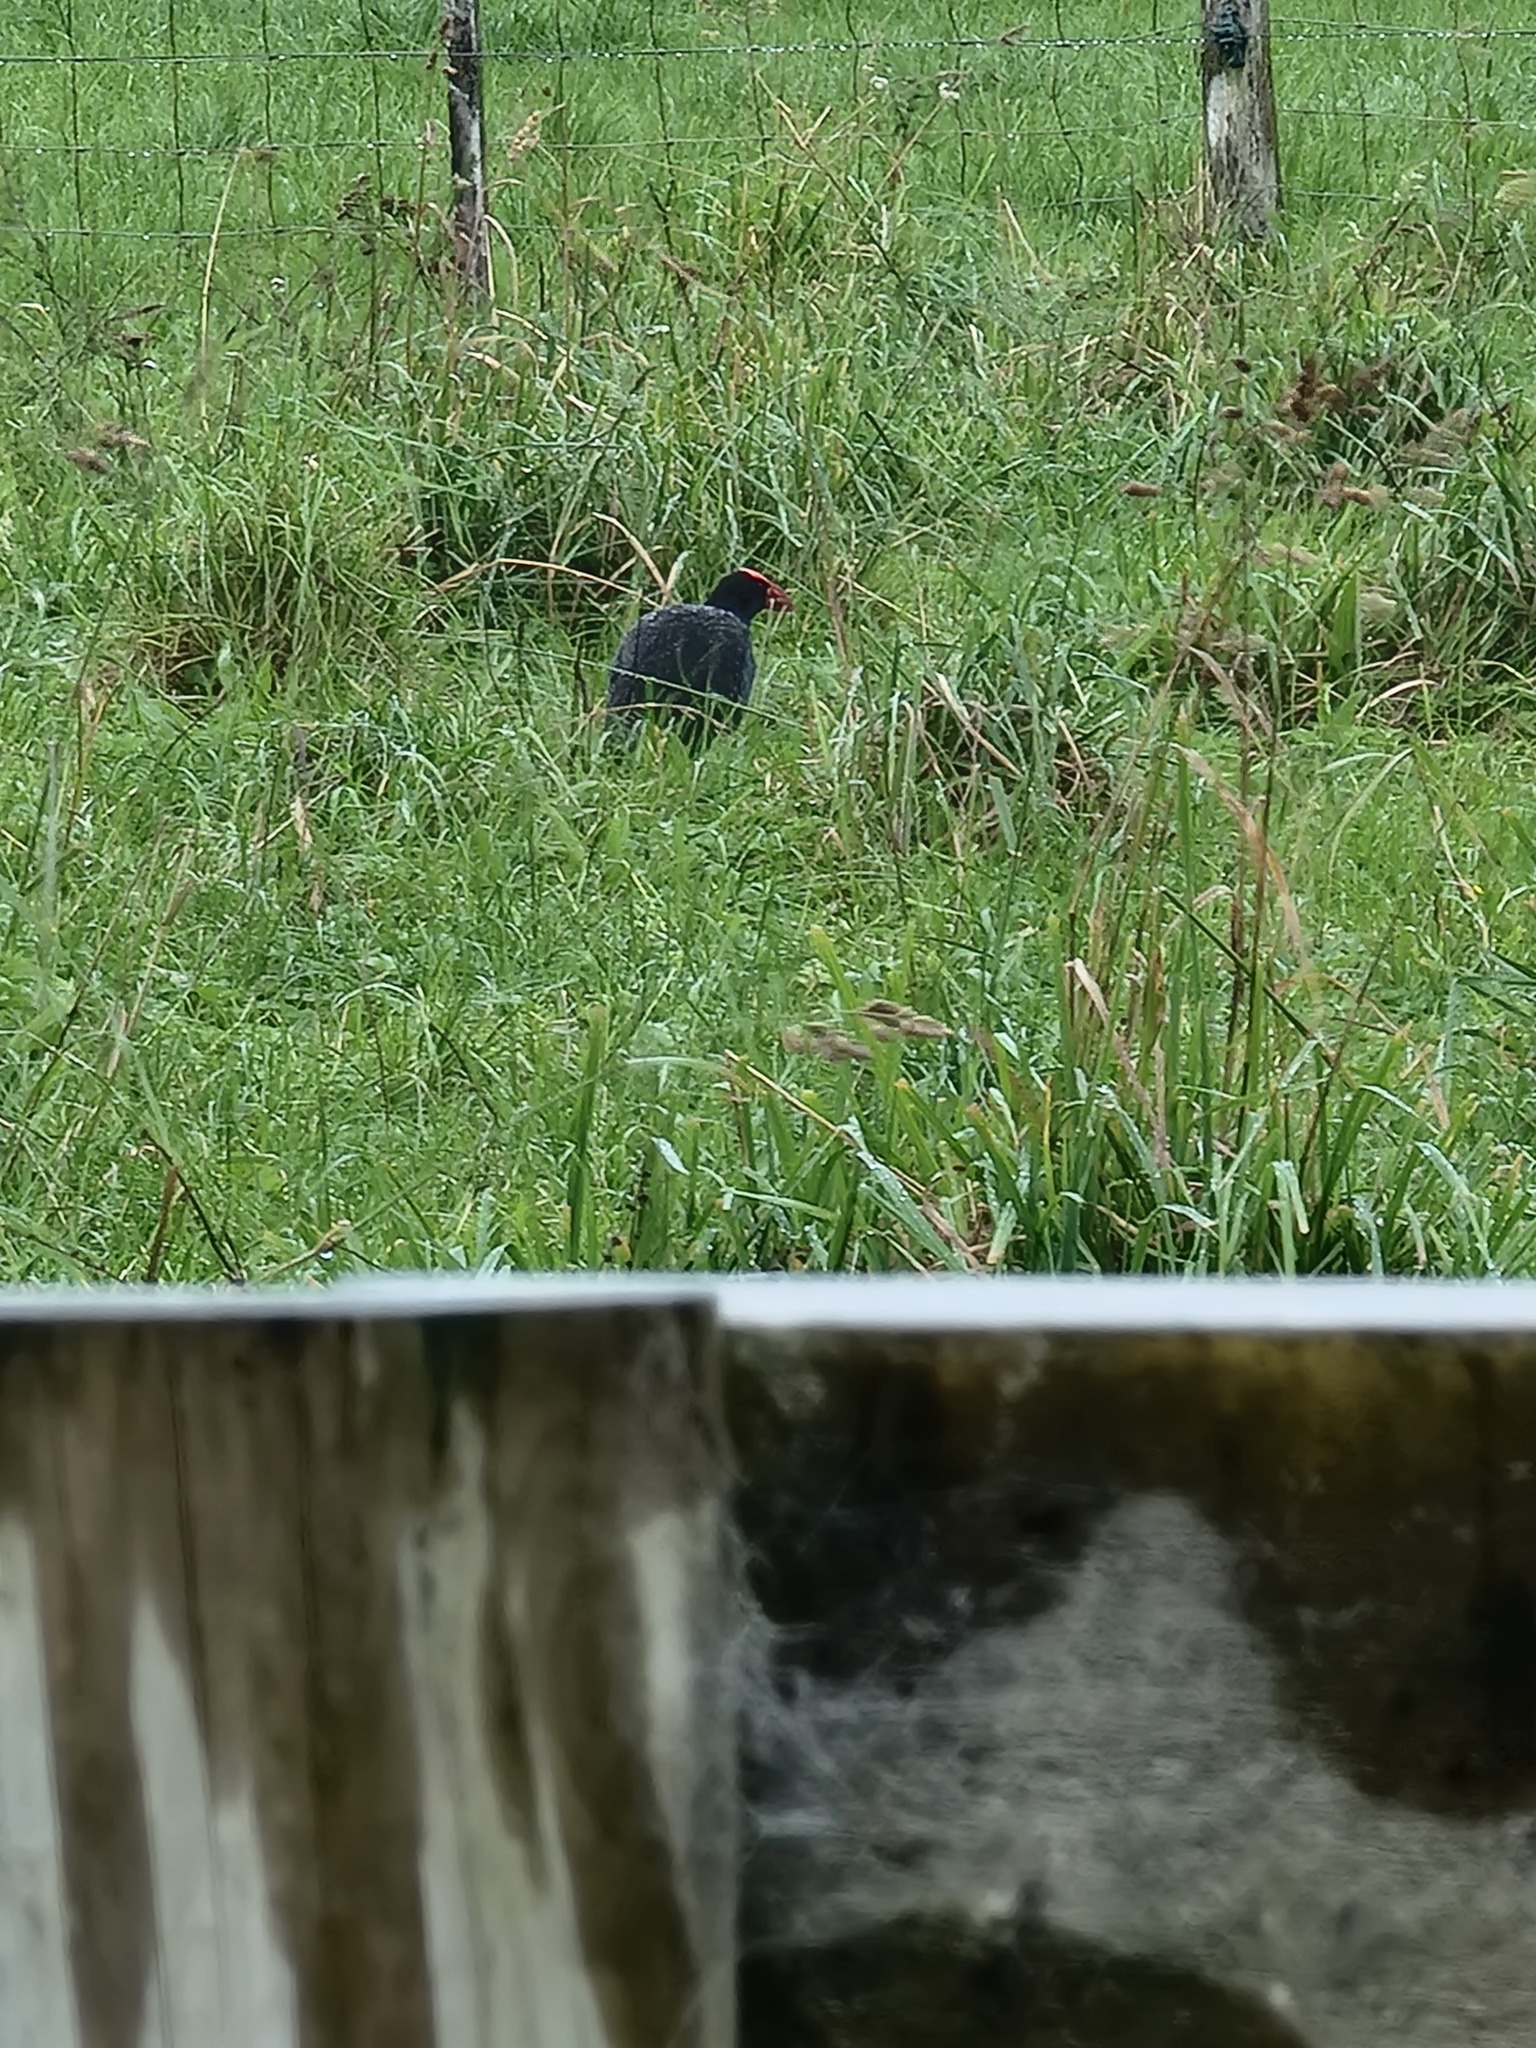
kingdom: Animalia
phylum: Chordata
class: Aves
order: Gruiformes
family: Rallidae
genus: Porphyrio
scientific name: Porphyrio melanotus
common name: Australasian swamphen
